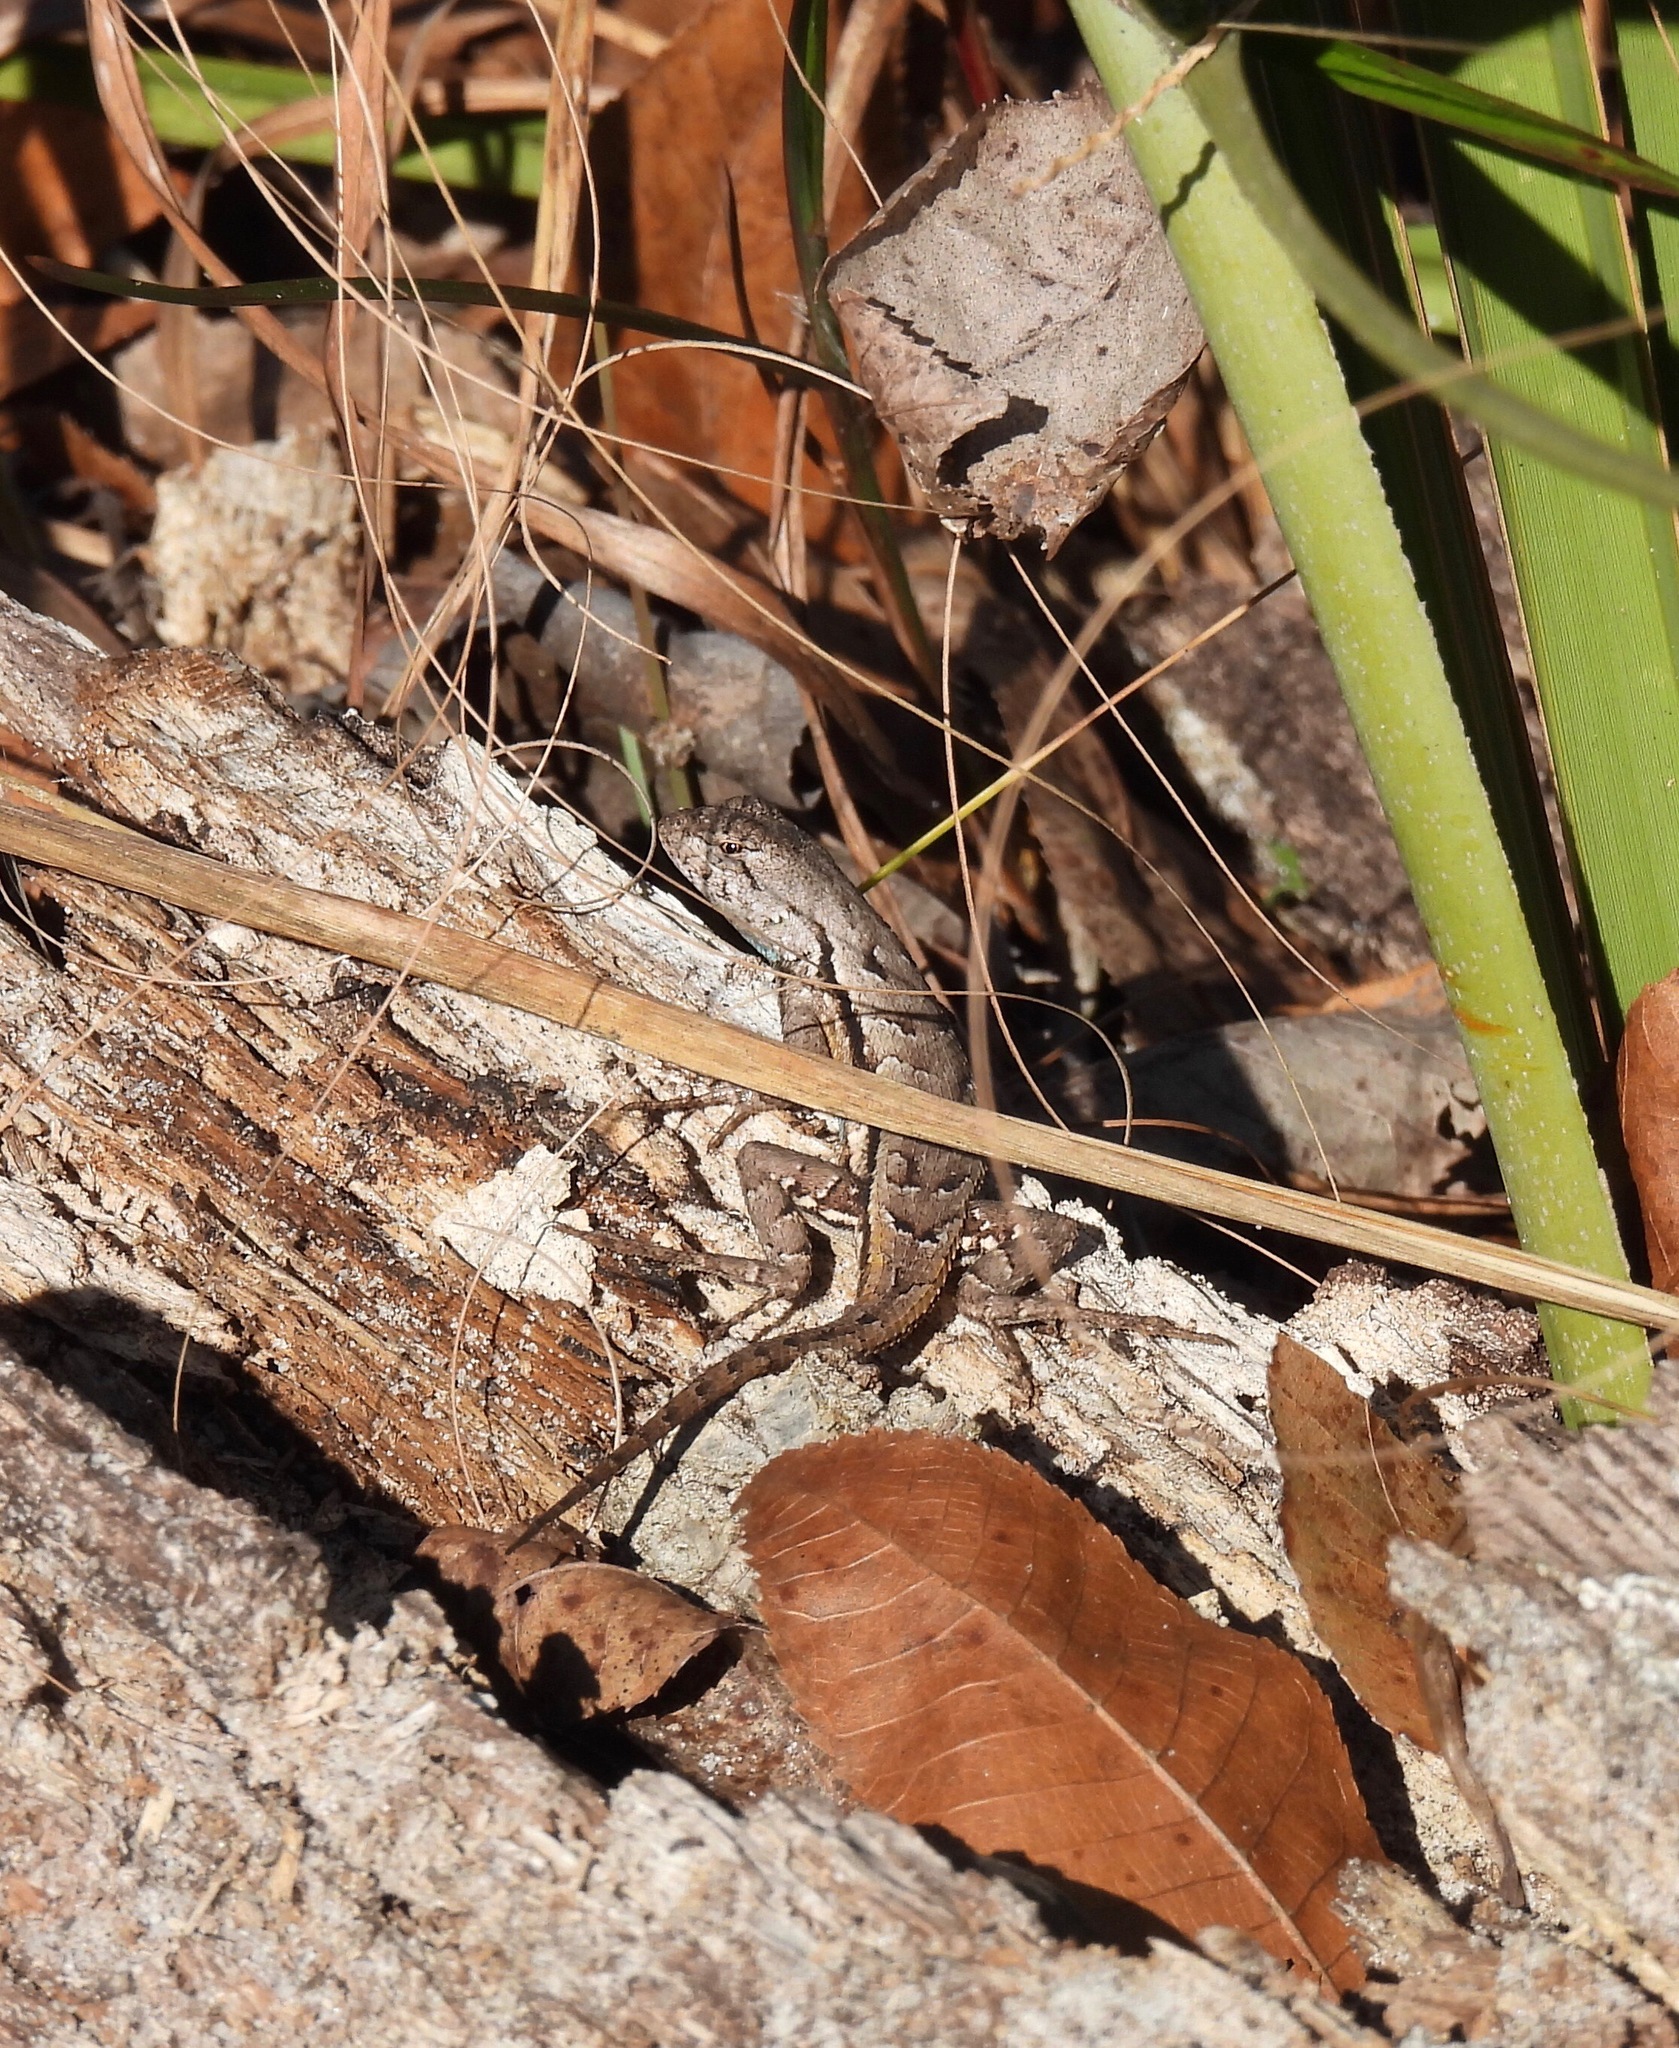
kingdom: Animalia
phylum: Chordata
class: Squamata
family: Phrynosomatidae
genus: Sceloporus
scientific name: Sceloporus woodi
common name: Florida scrub lizard
